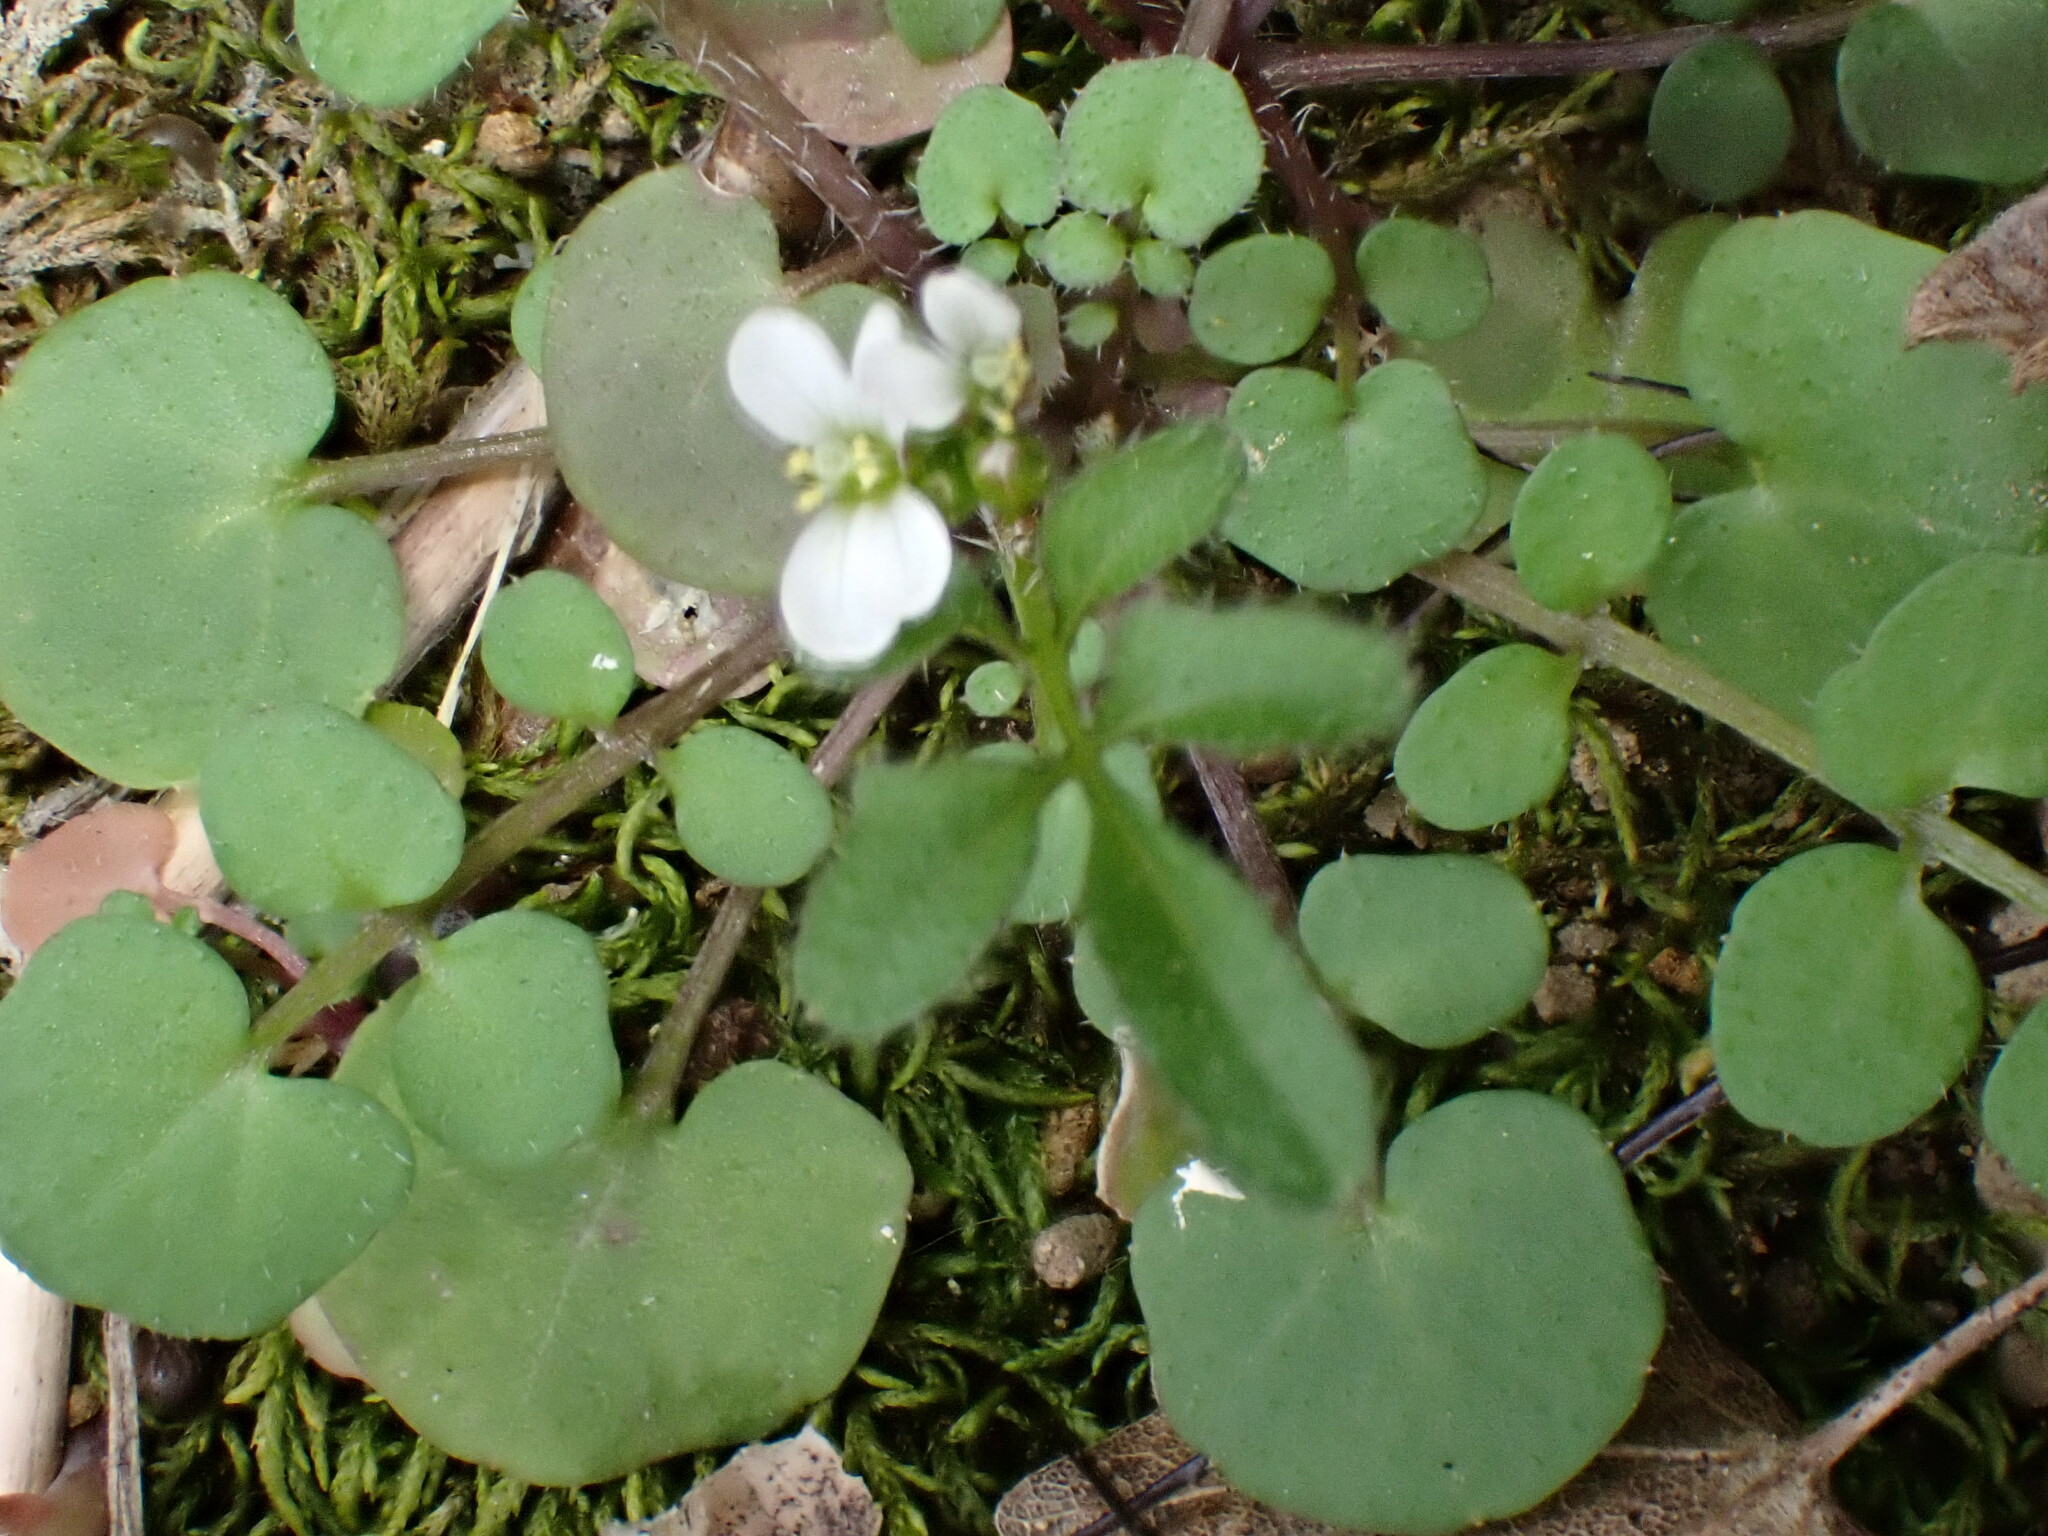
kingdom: Plantae
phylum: Tracheophyta
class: Magnoliopsida
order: Brassicales
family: Brassicaceae
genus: Cardamine
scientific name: Cardamine hirsuta
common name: Hairy bittercress
